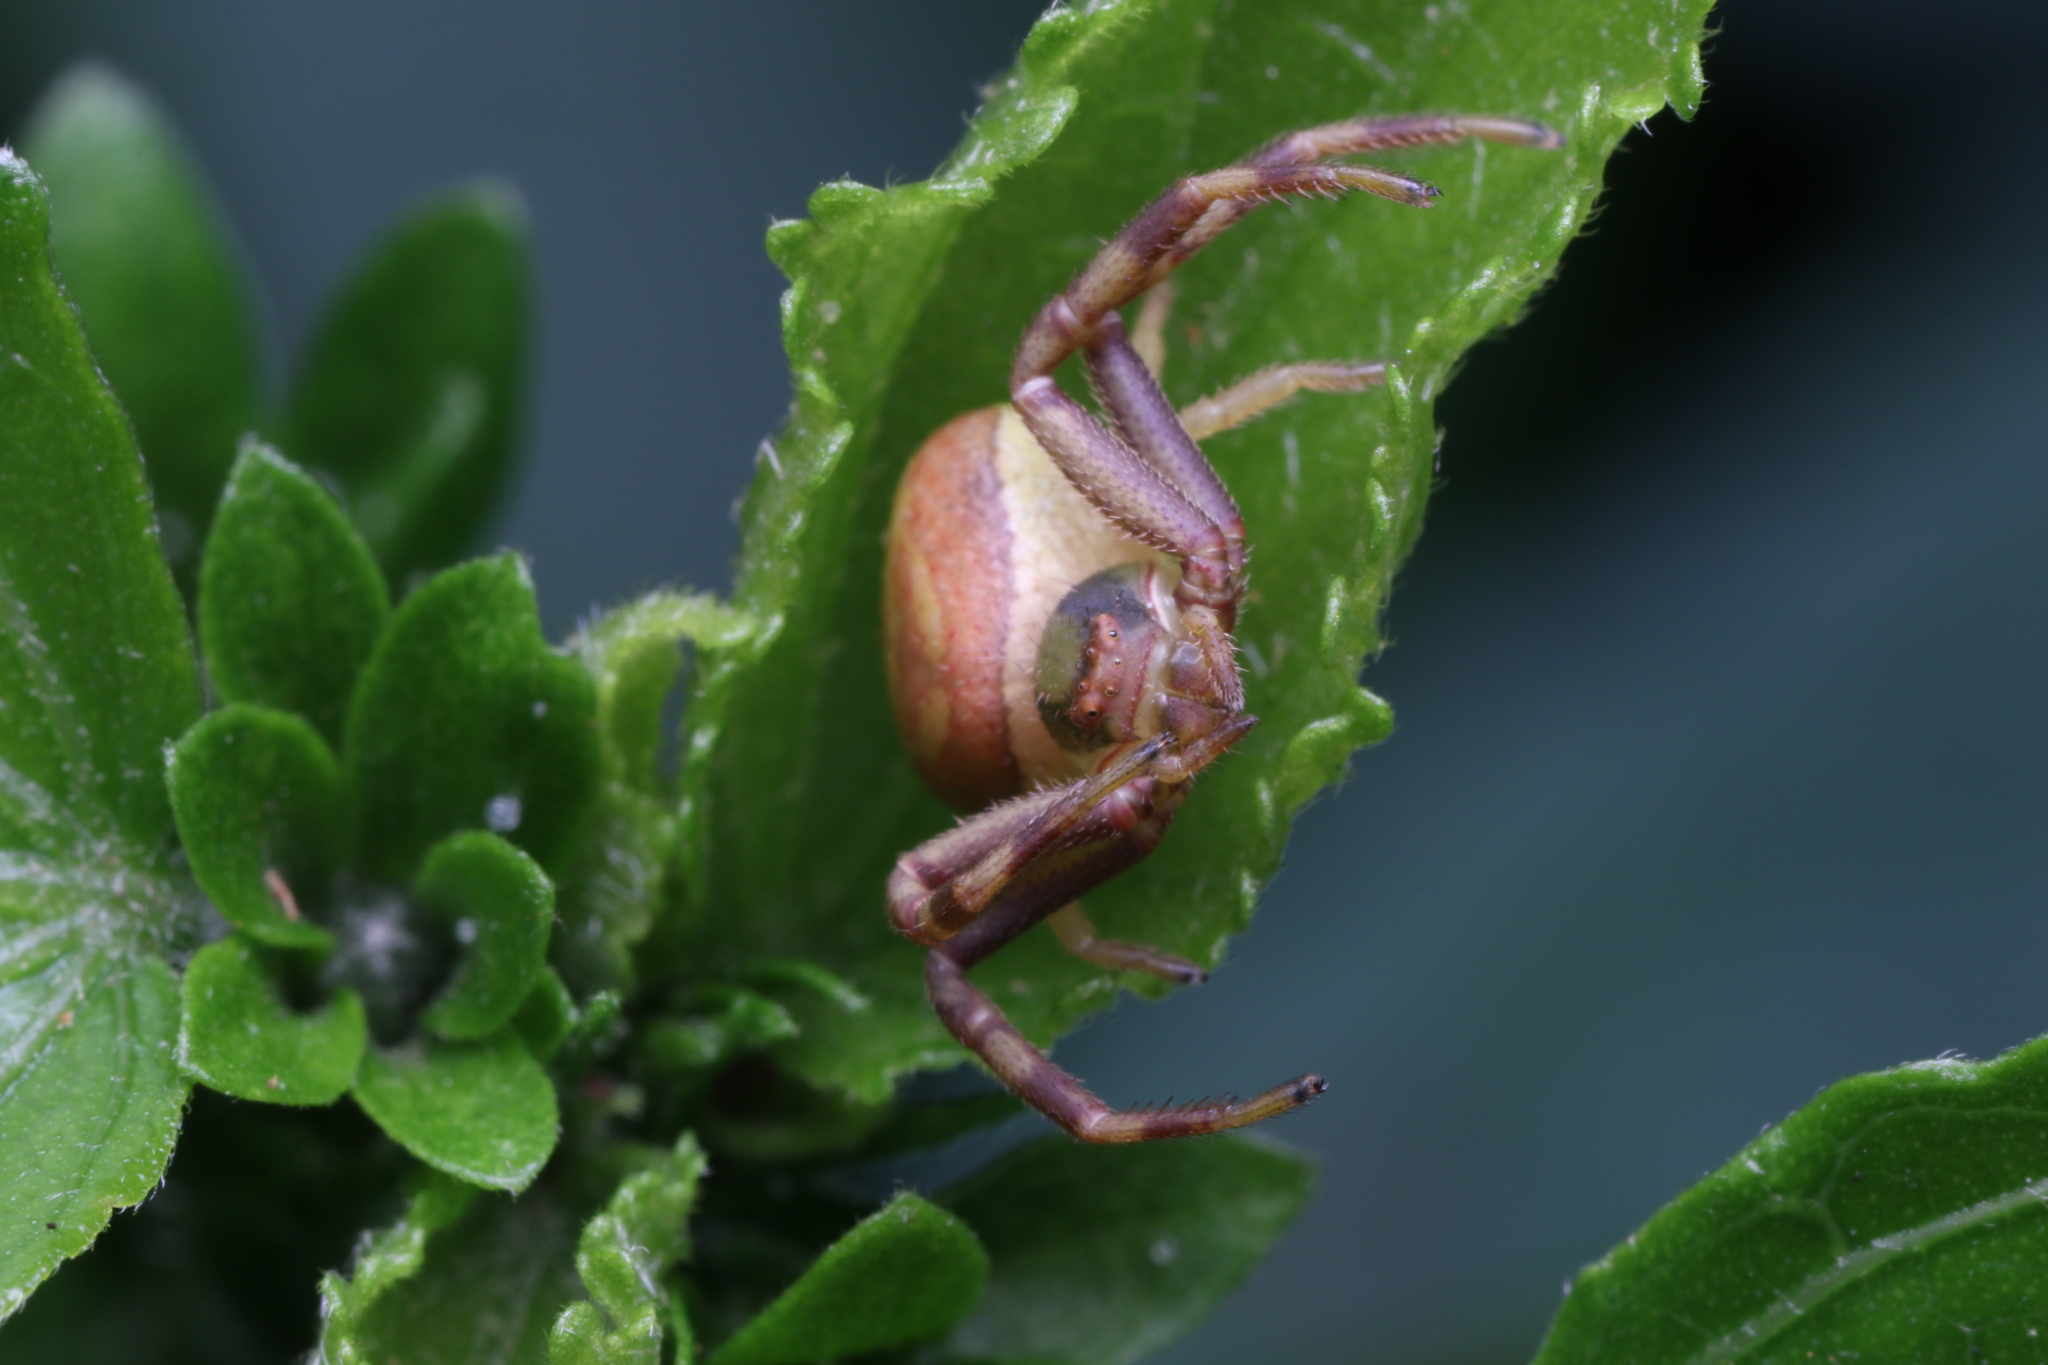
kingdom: Animalia
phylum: Arthropoda
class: Arachnida
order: Araneae
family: Thomisidae
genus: Runcinioides
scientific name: Runcinioides litteratus
